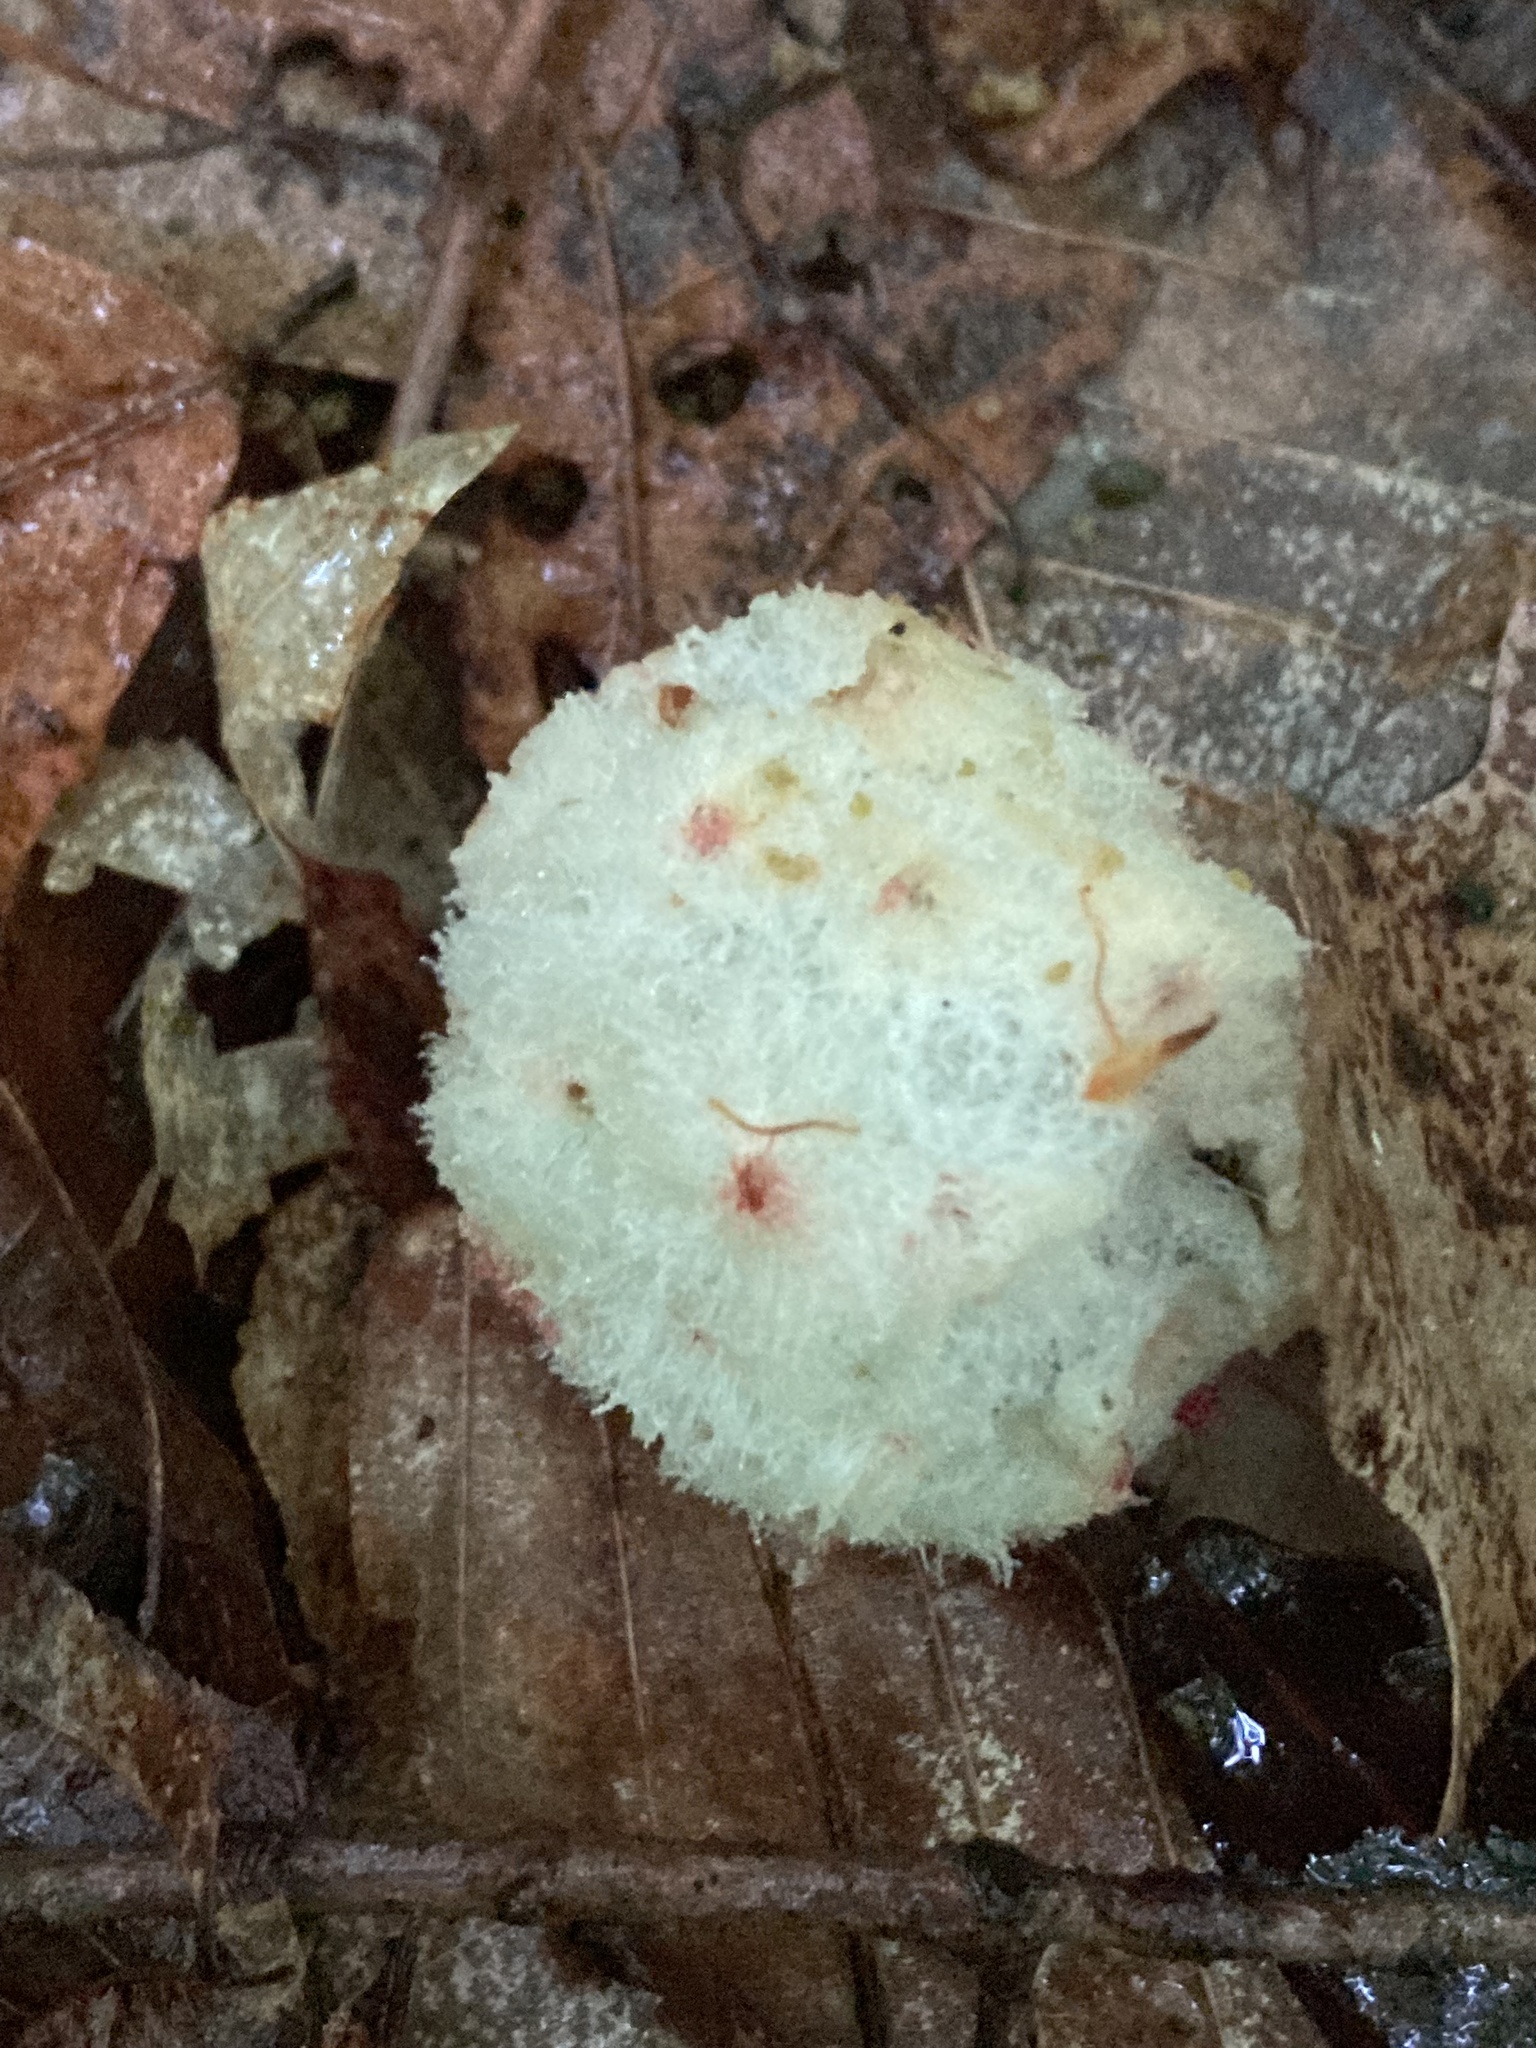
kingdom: Animalia
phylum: Arthropoda
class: Insecta
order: Hymenoptera
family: Cynipidae
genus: Callirhytis
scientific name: Callirhytis
